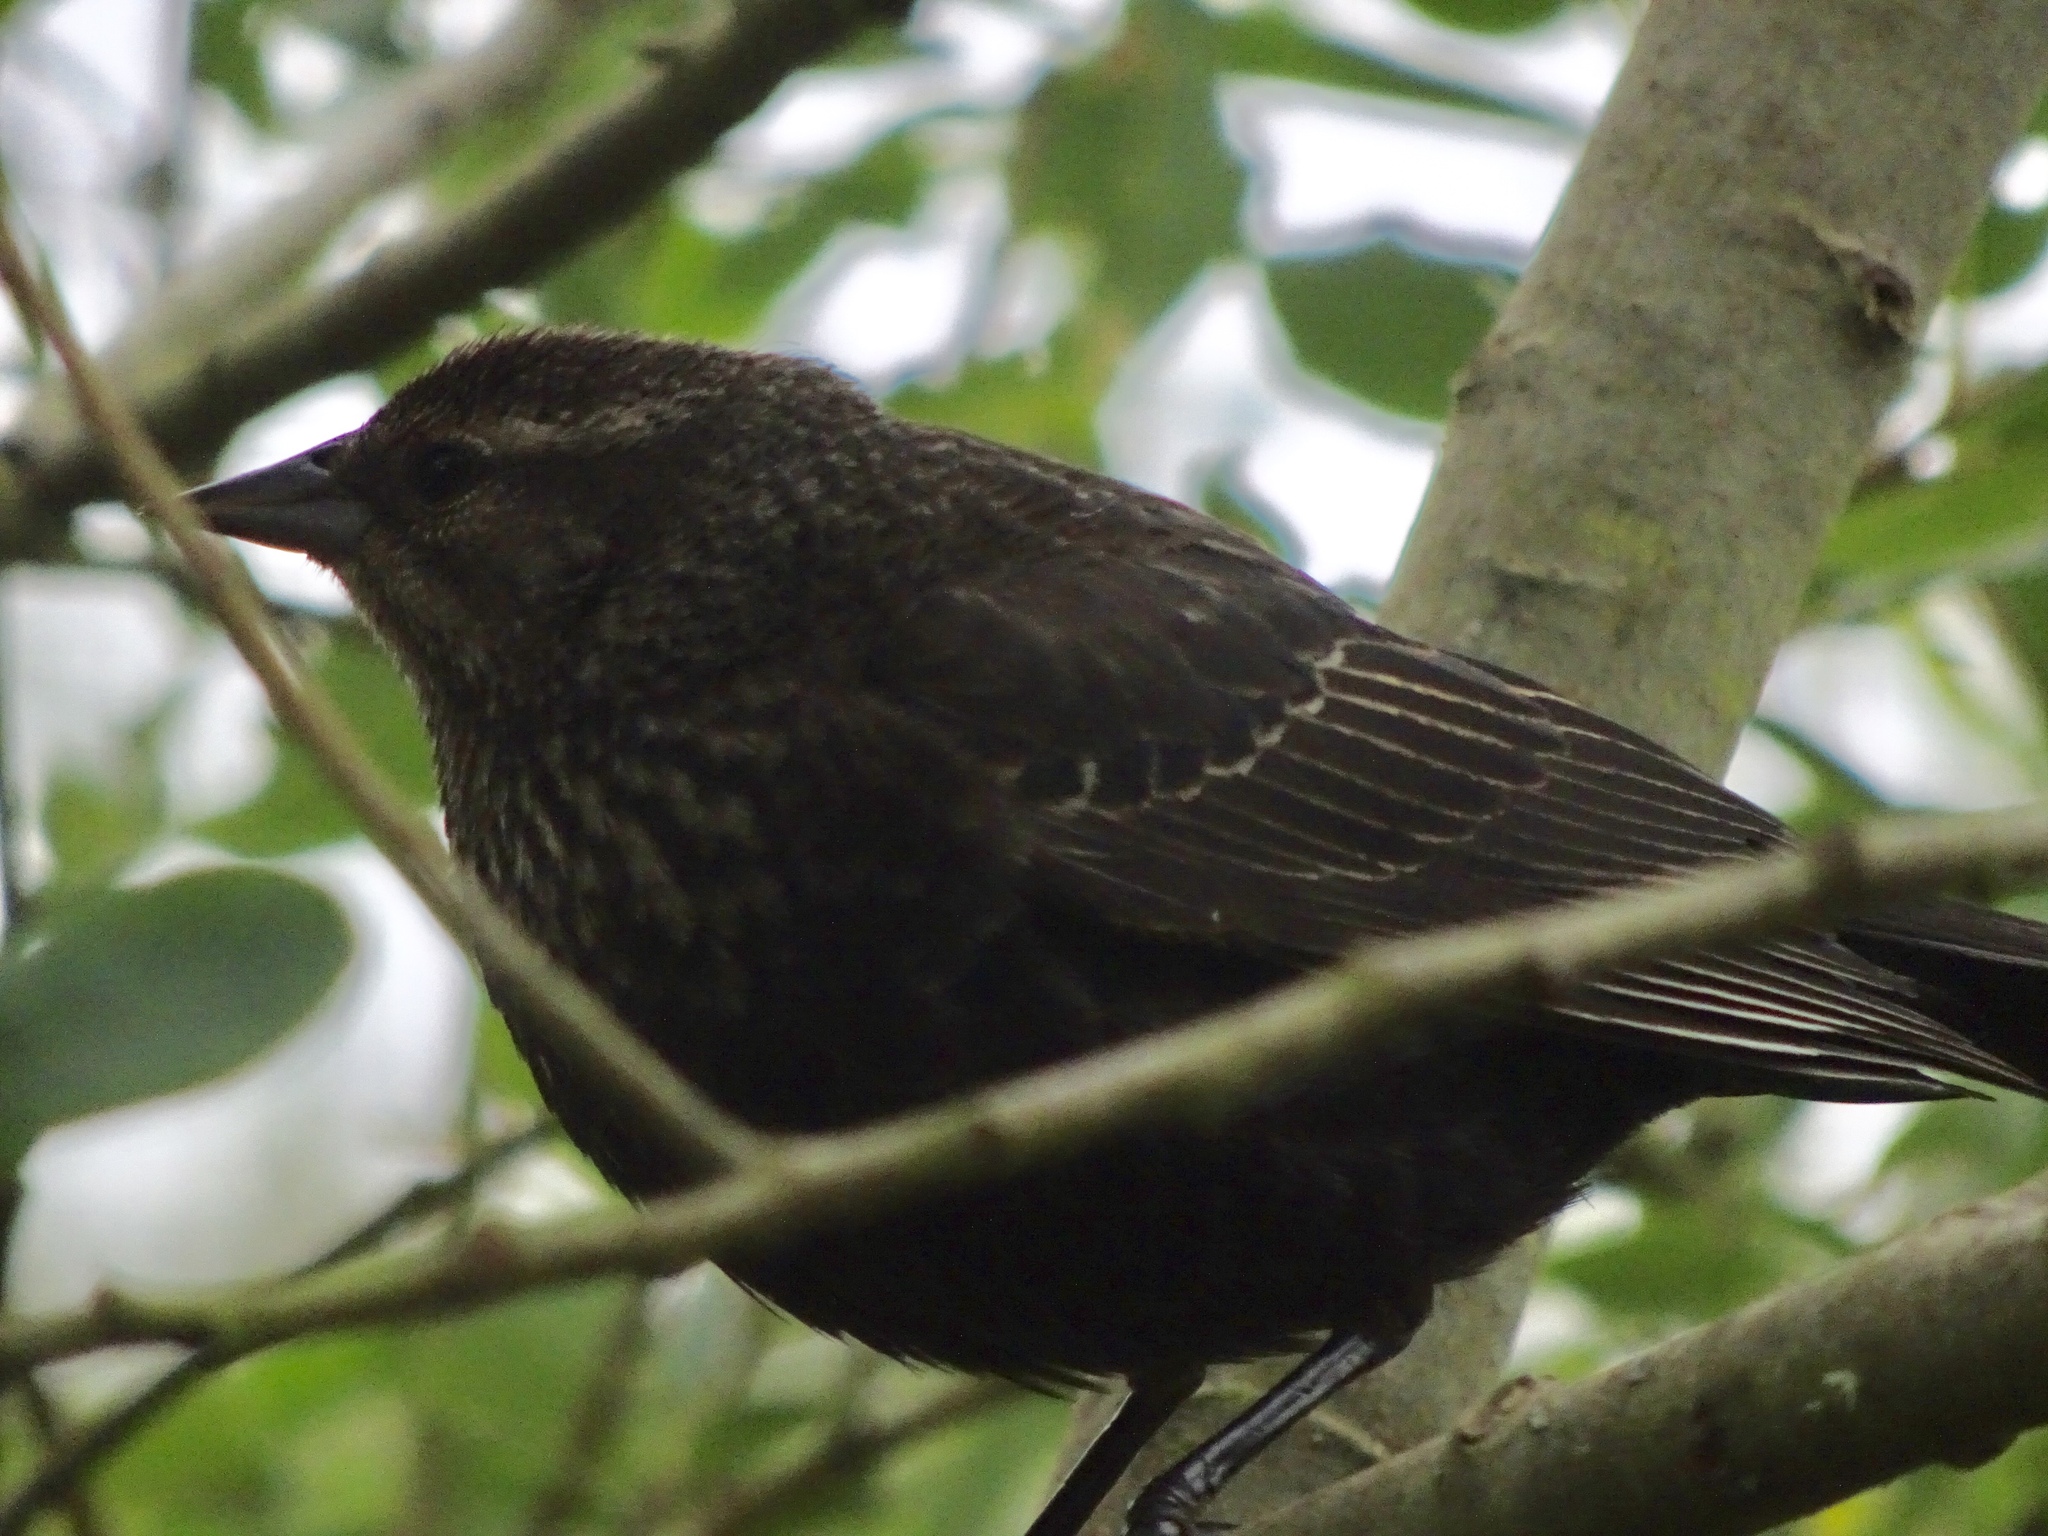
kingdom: Animalia
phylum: Chordata
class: Aves
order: Passeriformes
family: Icteridae
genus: Agelaius
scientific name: Agelaius phoeniceus
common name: Red-winged blackbird
